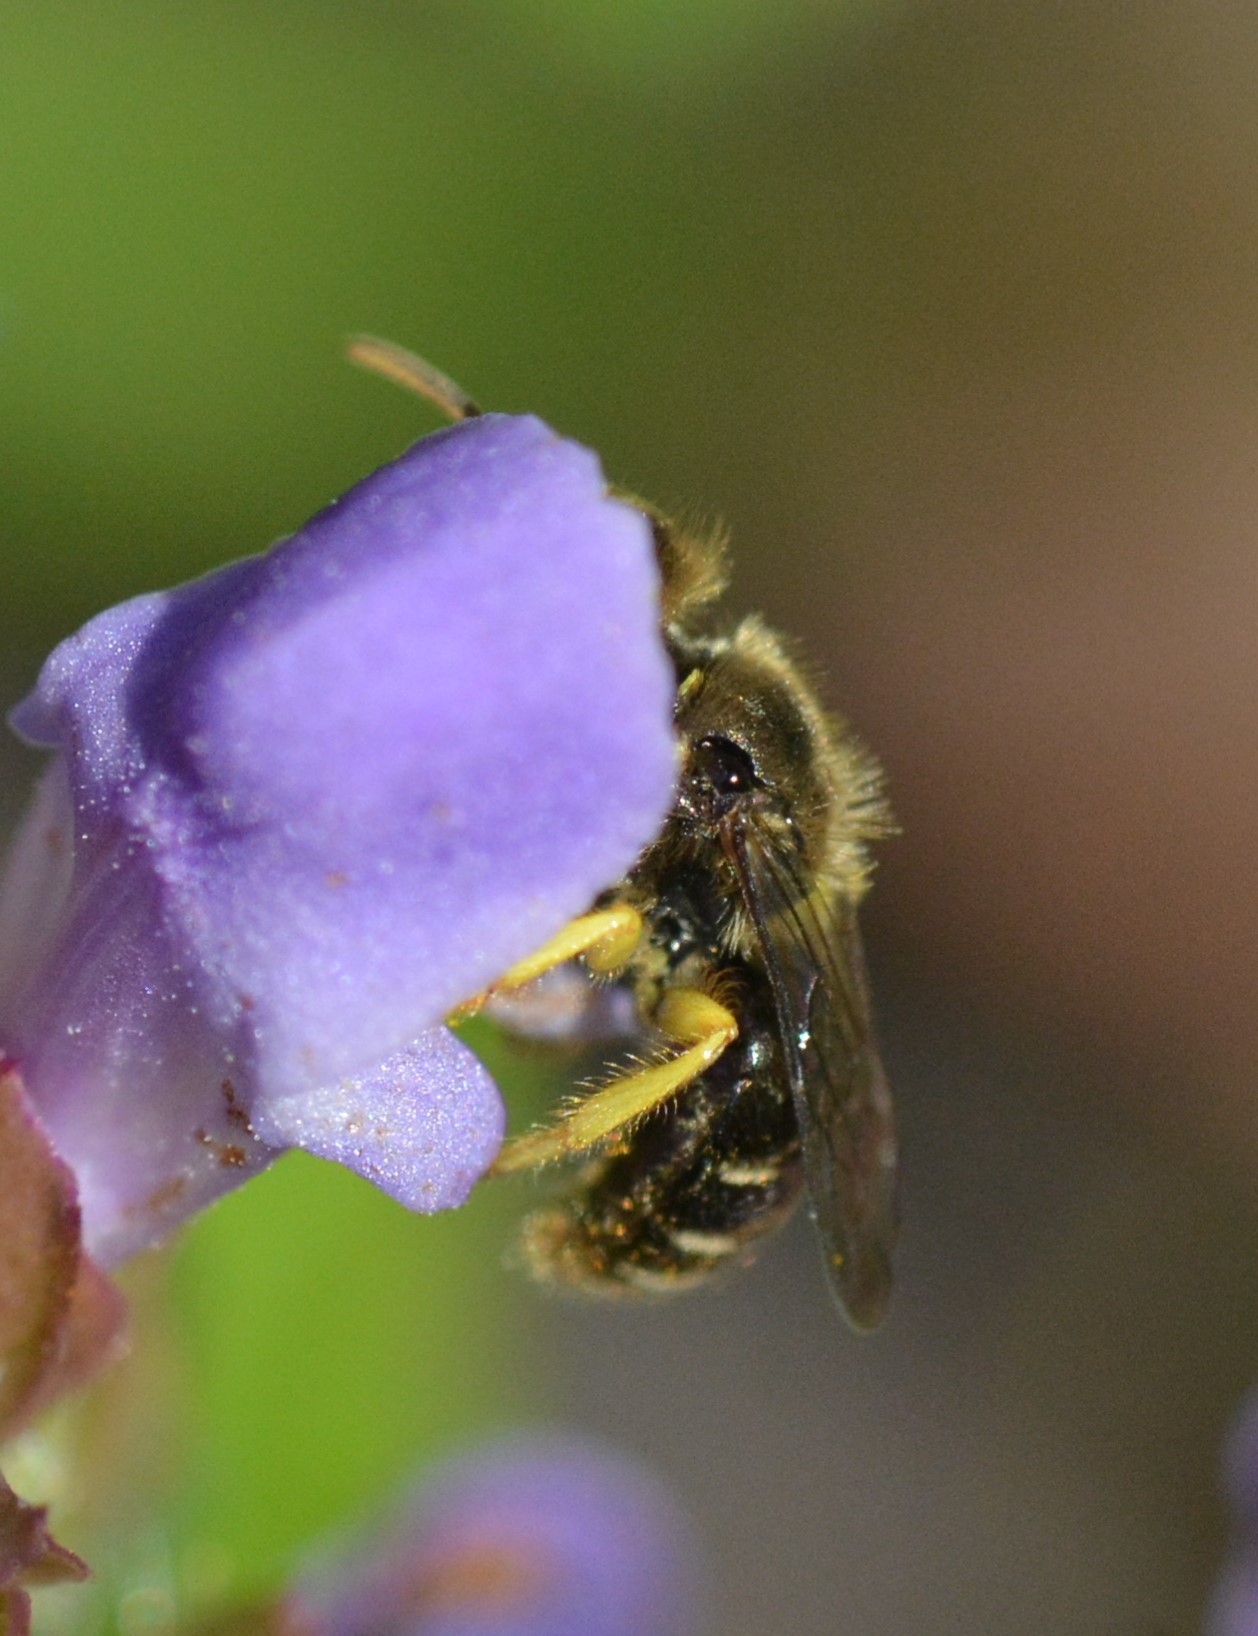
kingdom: Animalia
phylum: Arthropoda
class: Insecta
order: Hymenoptera
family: Andrenidae
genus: Calliopsis
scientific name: Calliopsis andreniformis
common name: Eastern calliopsis bee
